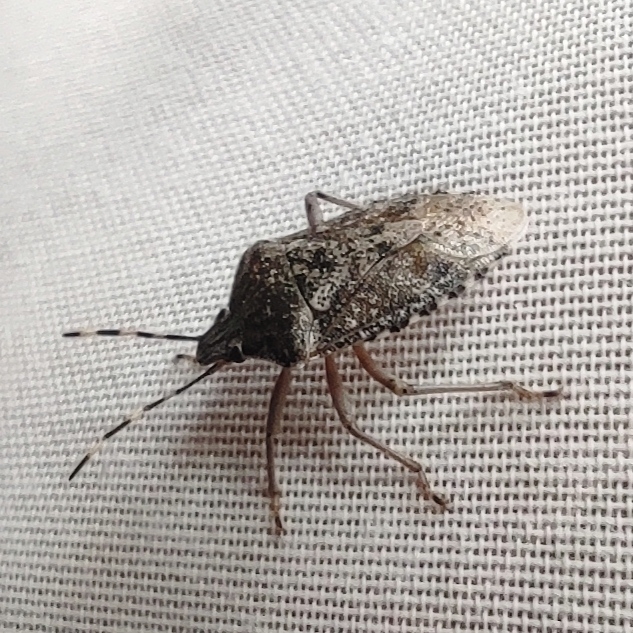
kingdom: Animalia
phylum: Arthropoda
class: Insecta
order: Hemiptera
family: Pentatomidae
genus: Rhaphigaster
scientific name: Rhaphigaster nebulosa
